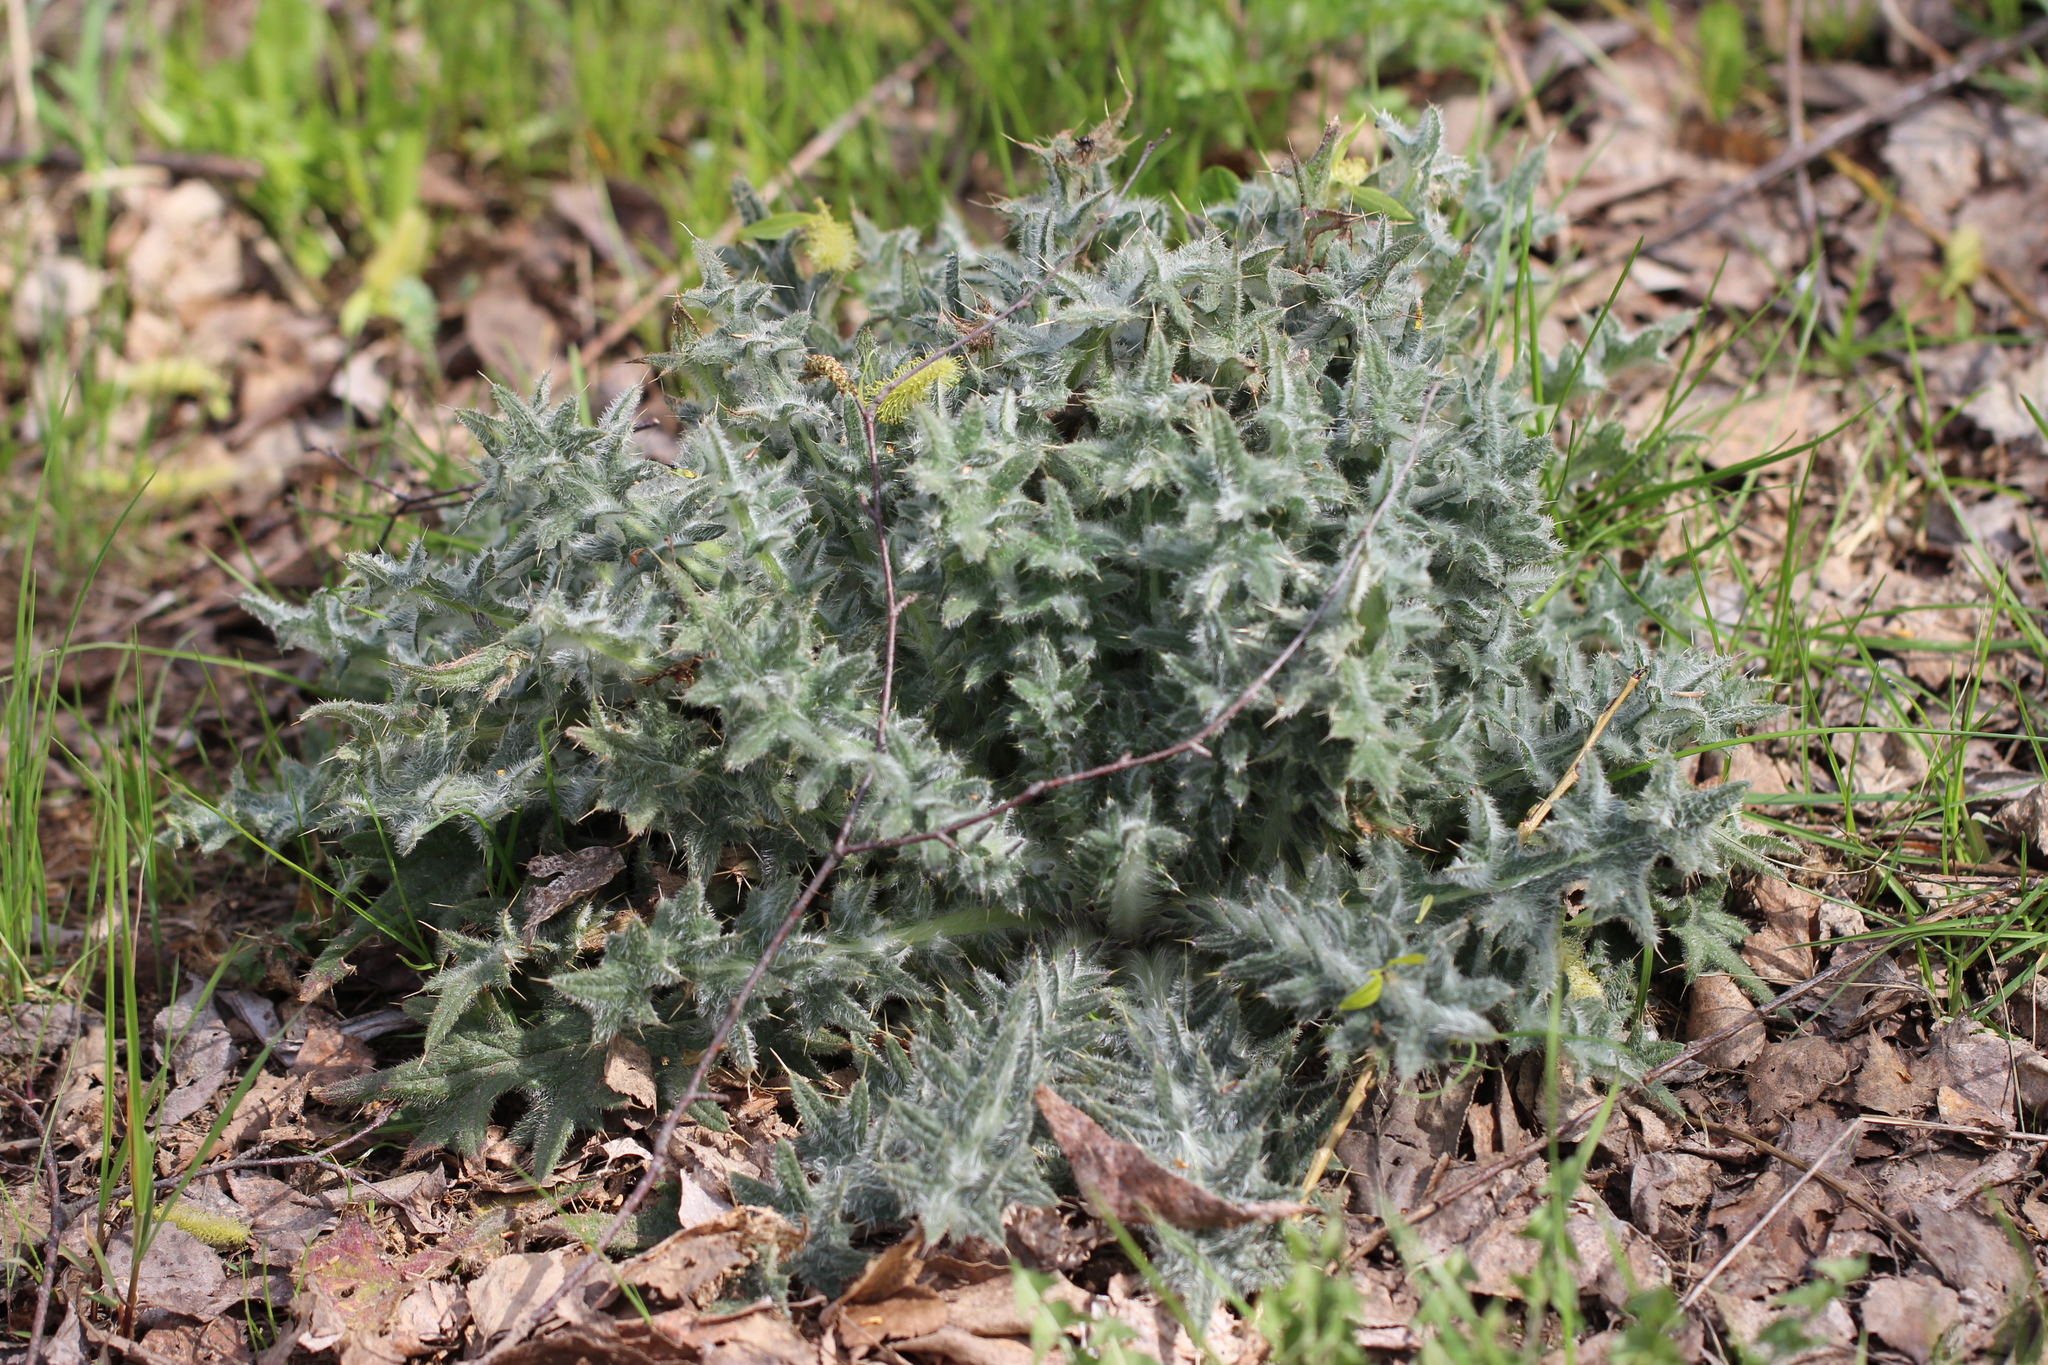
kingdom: Plantae
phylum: Tracheophyta
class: Magnoliopsida
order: Asterales
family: Asteraceae
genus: Cirsium
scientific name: Cirsium vulgare
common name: Bull thistle
